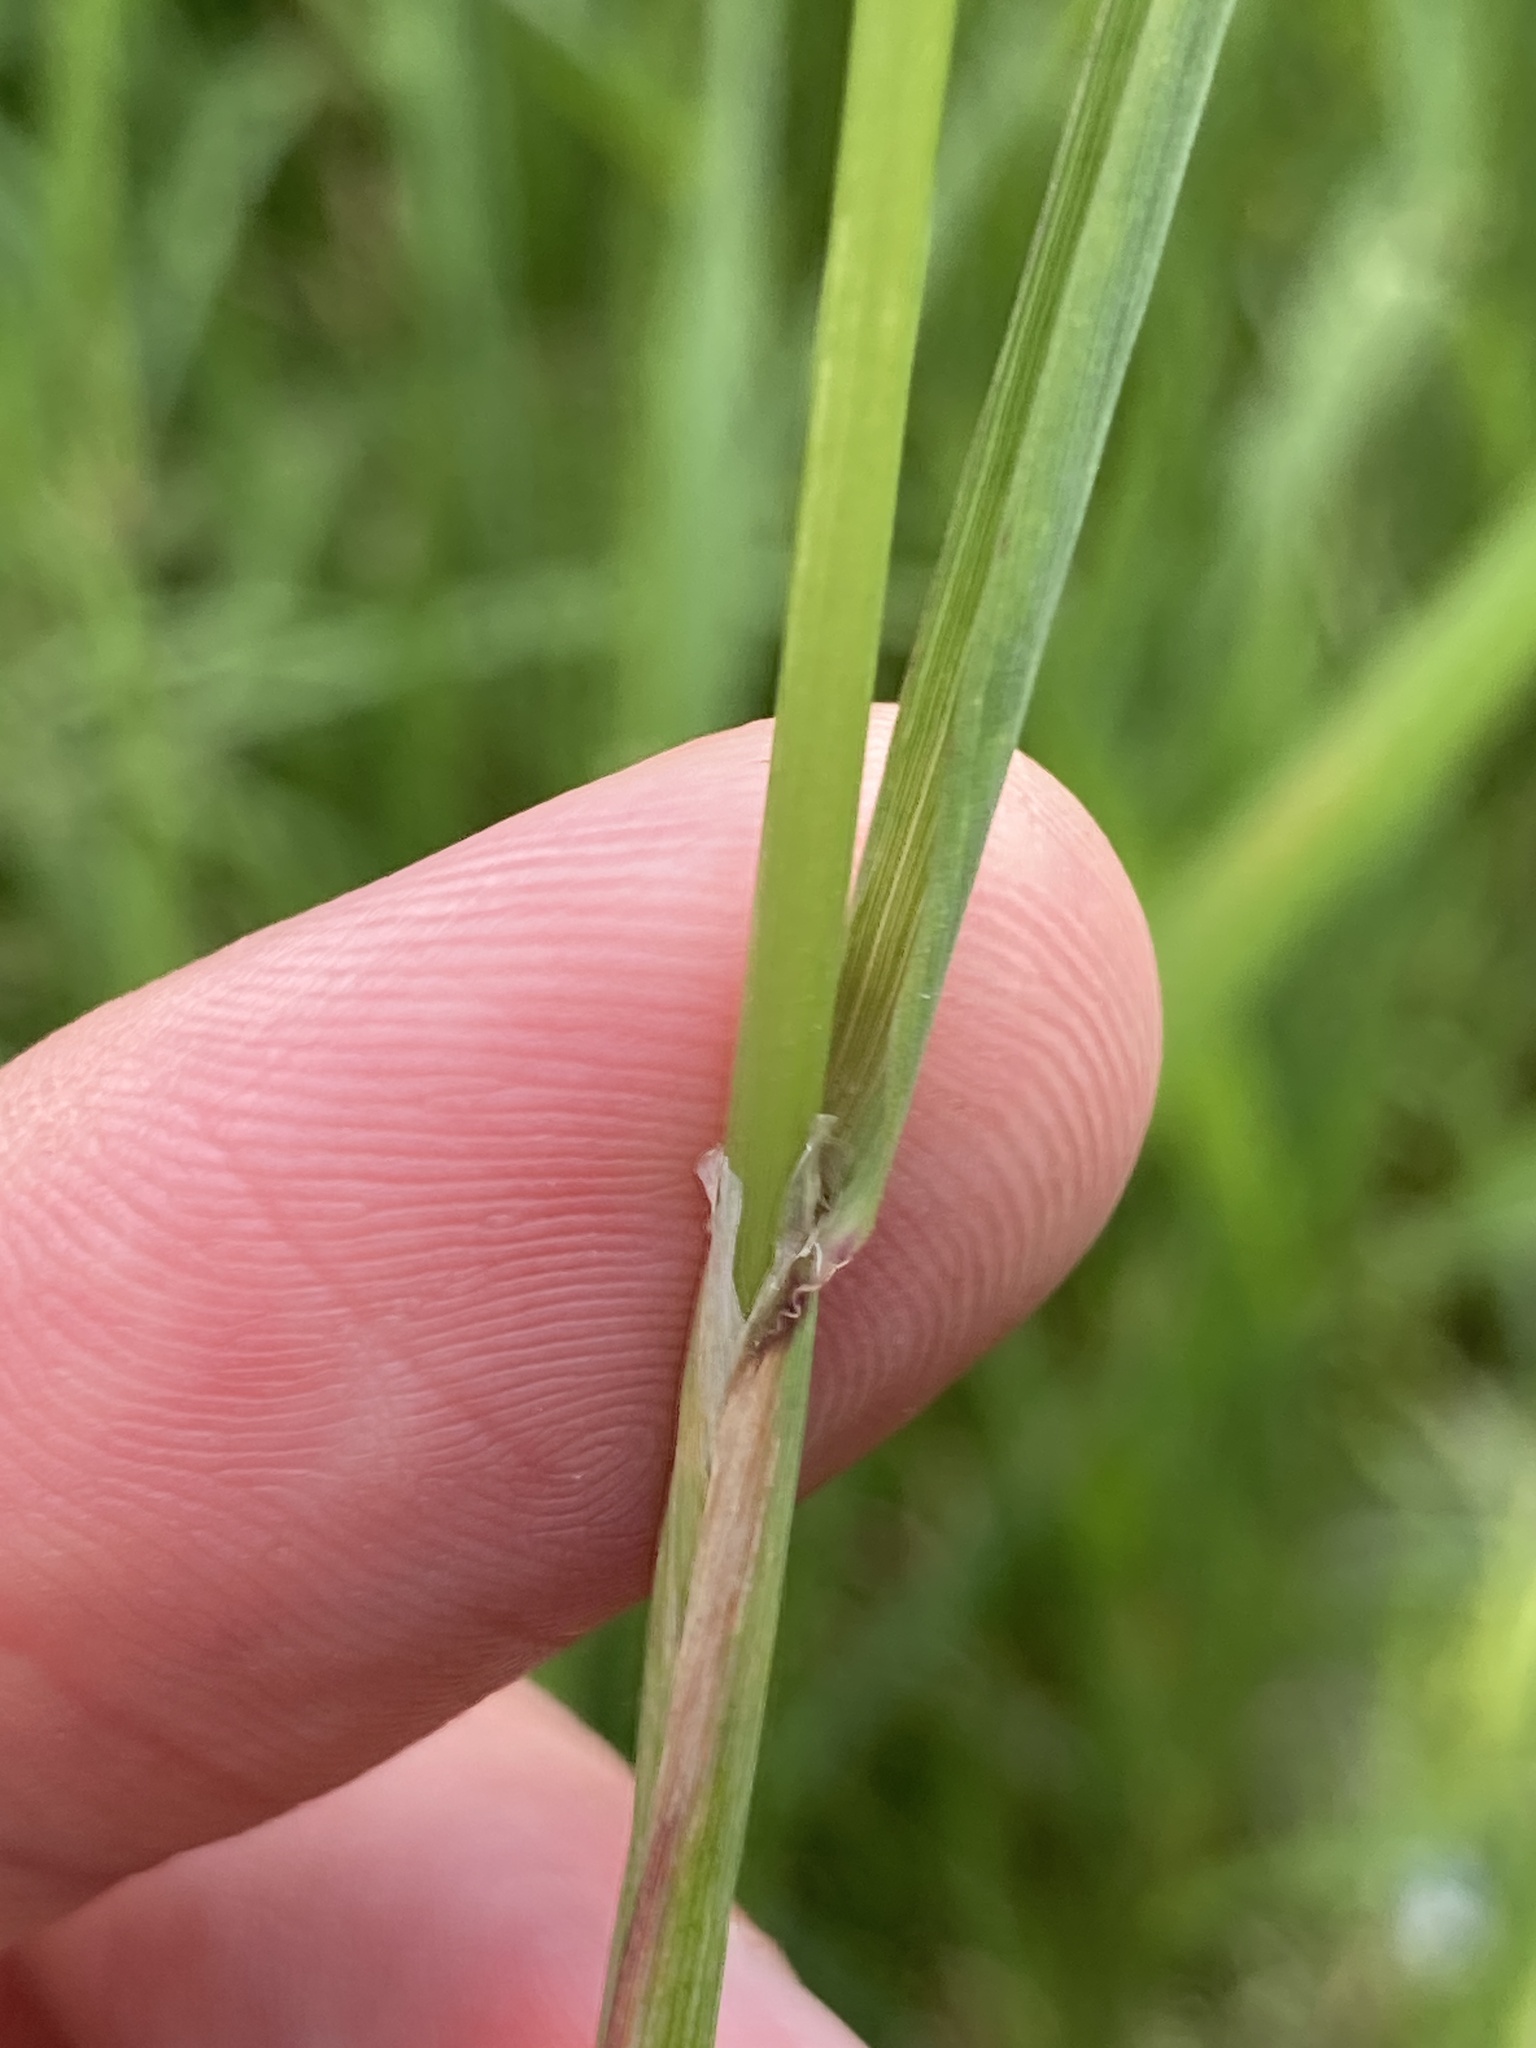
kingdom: Plantae
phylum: Tracheophyta
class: Liliopsida
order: Poales
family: Poaceae
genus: Phalaris
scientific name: Phalaris arundinacea
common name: Reed canary-grass
